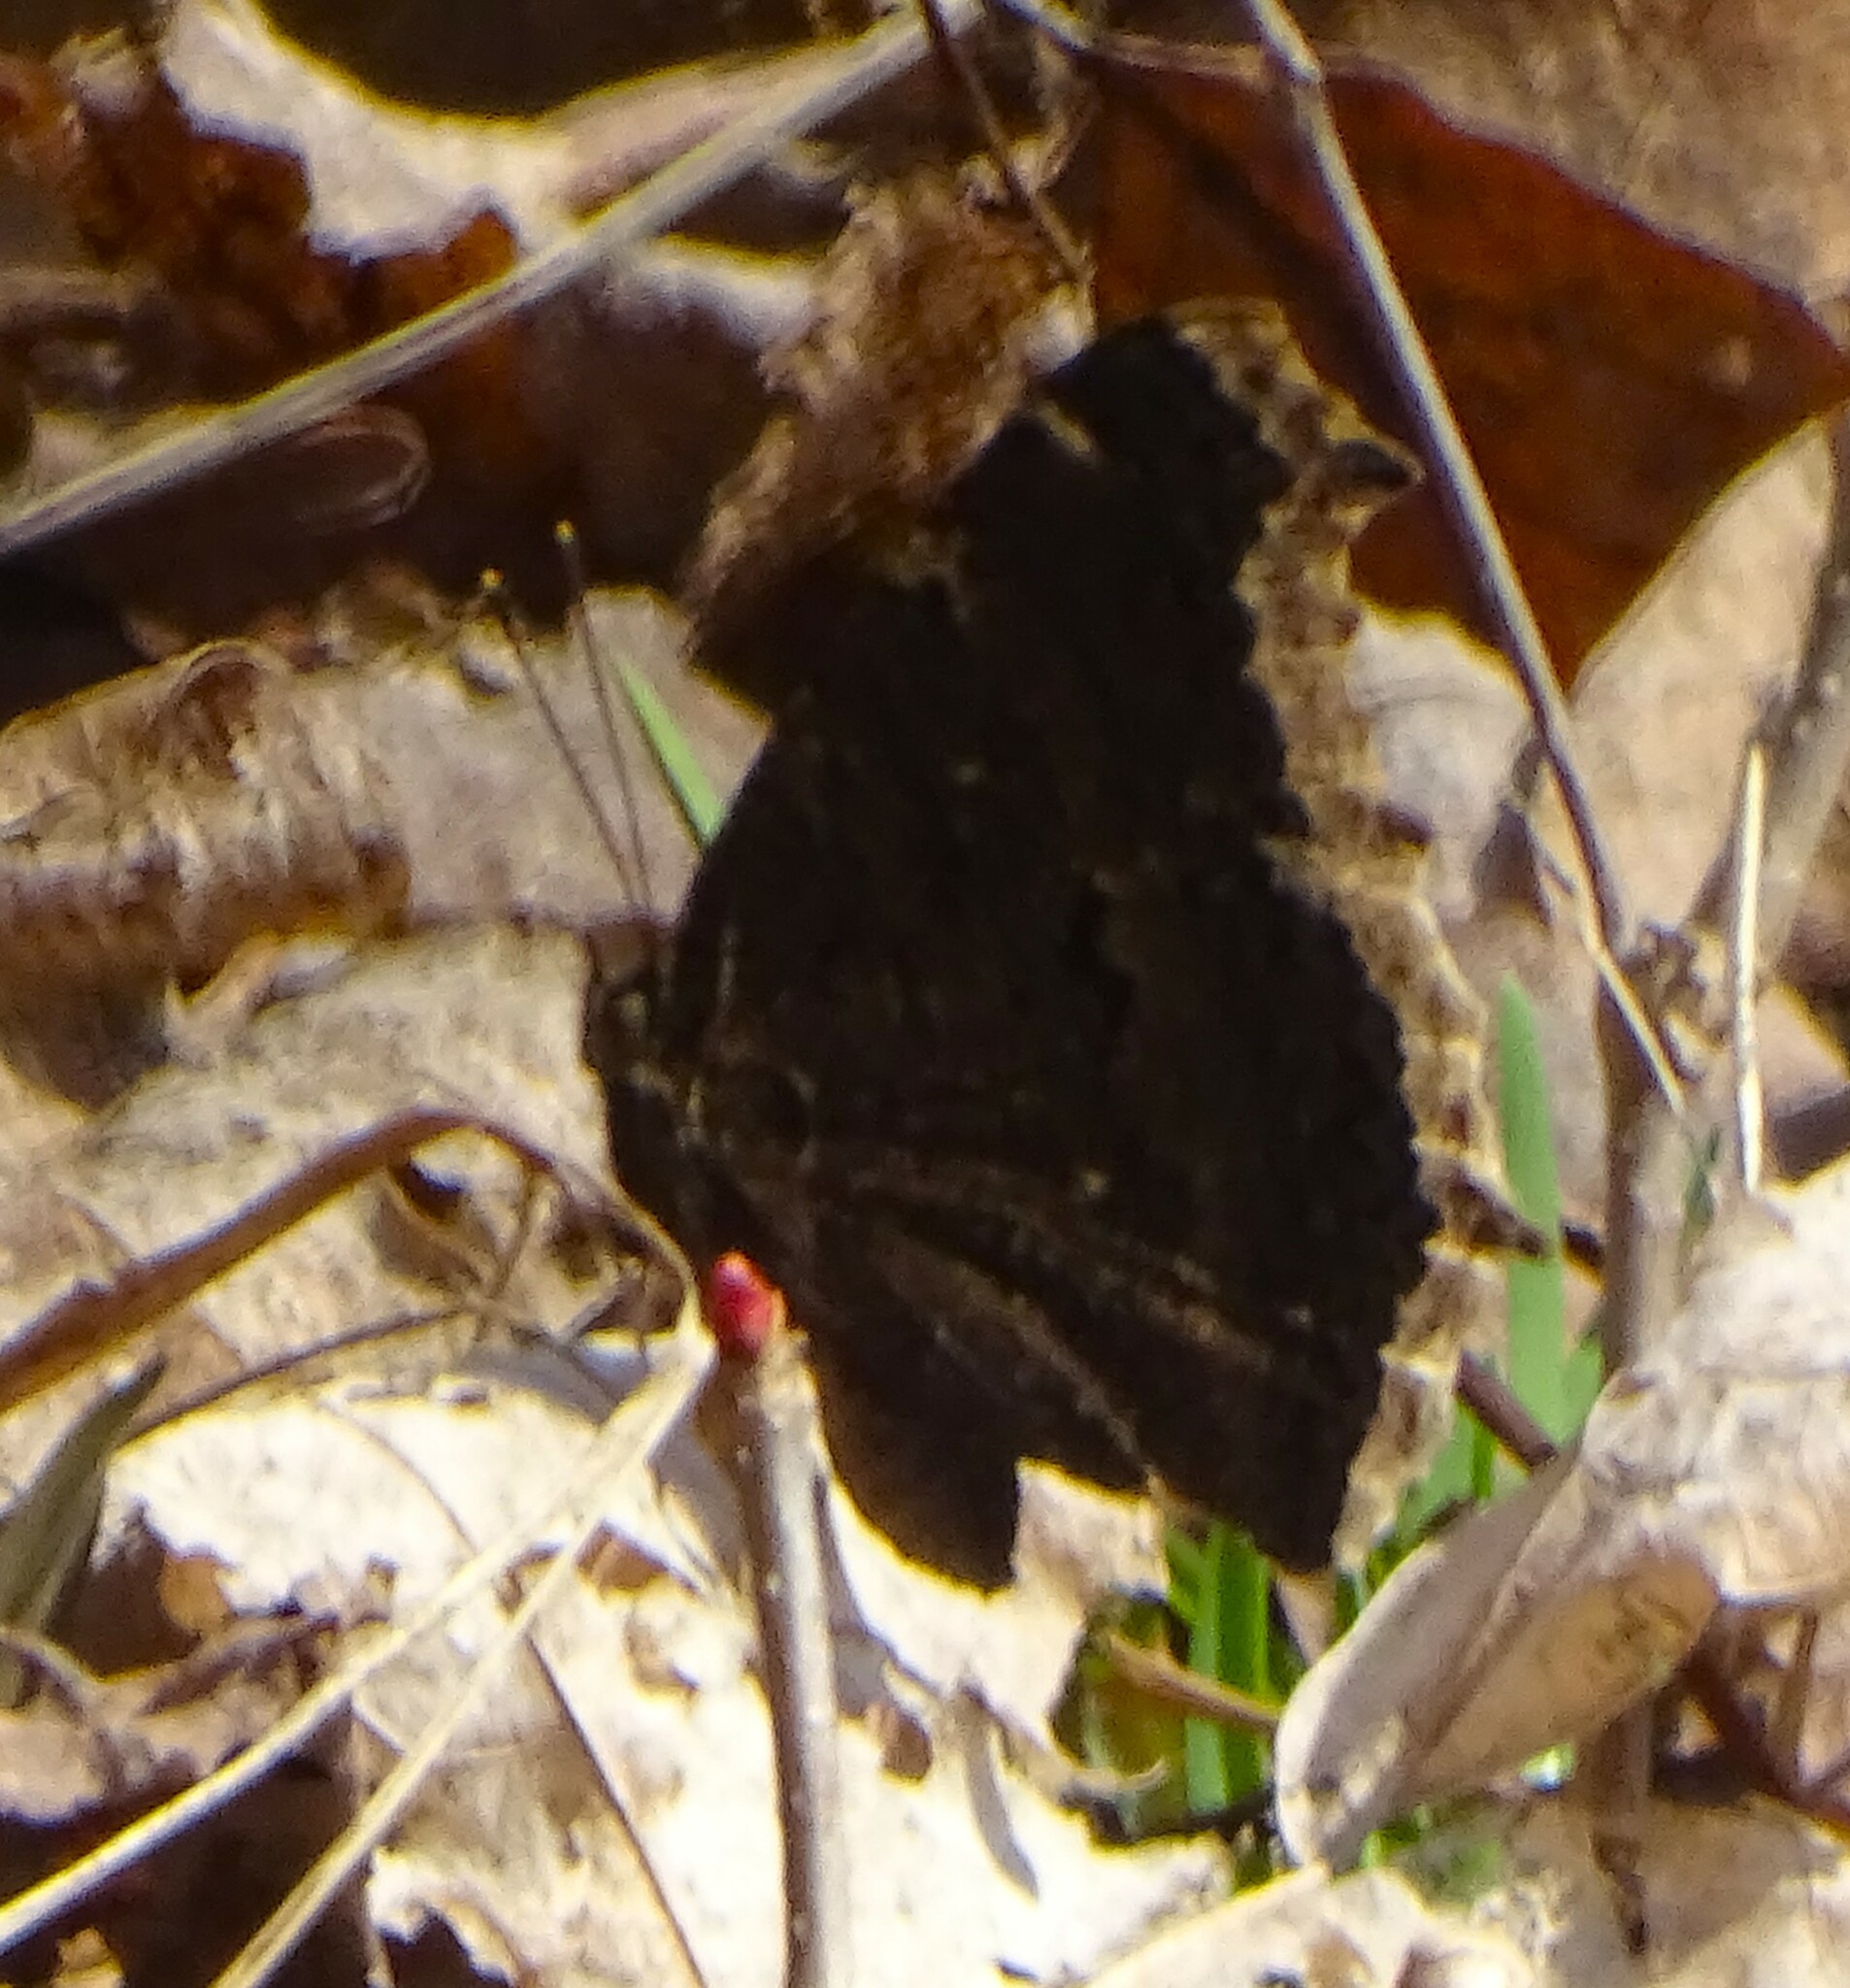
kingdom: Animalia
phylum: Arthropoda
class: Insecta
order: Lepidoptera
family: Nymphalidae
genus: Nymphalis
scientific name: Nymphalis antiopa
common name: Camberwell beauty
